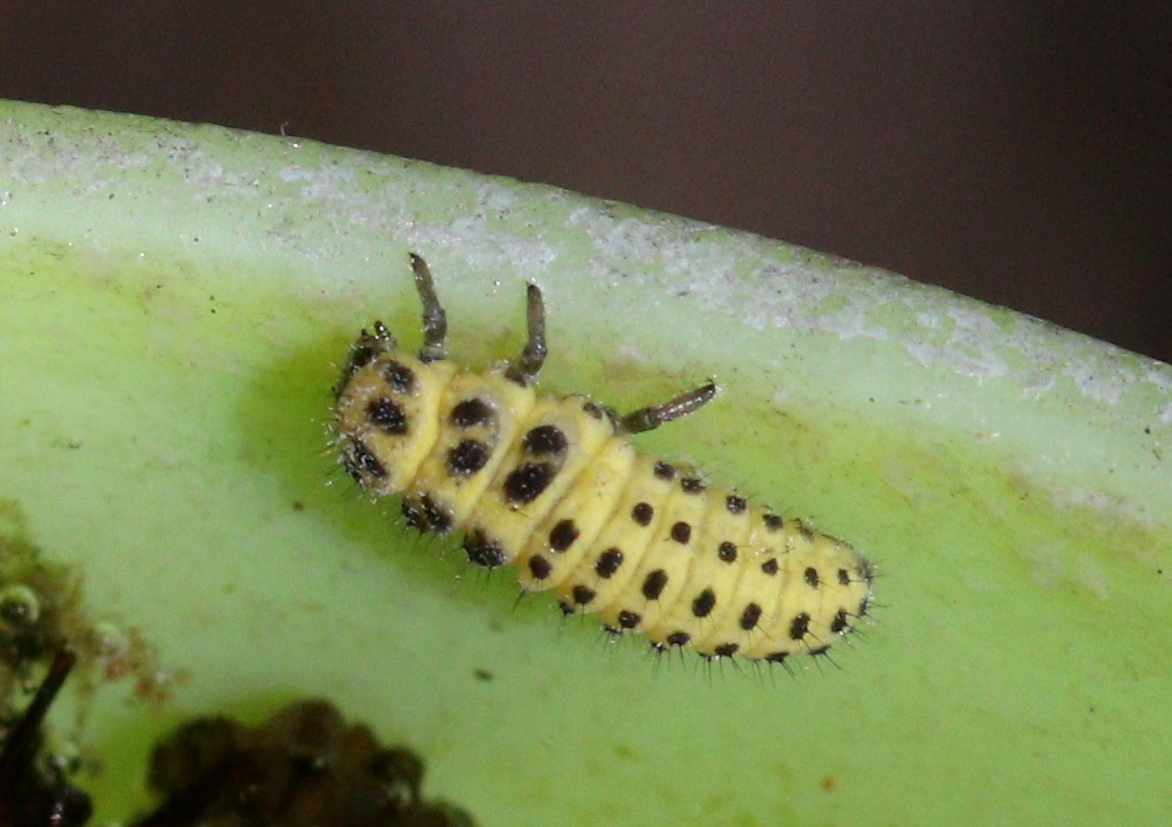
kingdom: Animalia
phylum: Arthropoda
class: Insecta
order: Coleoptera
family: Coccinellidae
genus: Psyllobora
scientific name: Psyllobora vigintiduopunctata
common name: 22-spot ladybird
